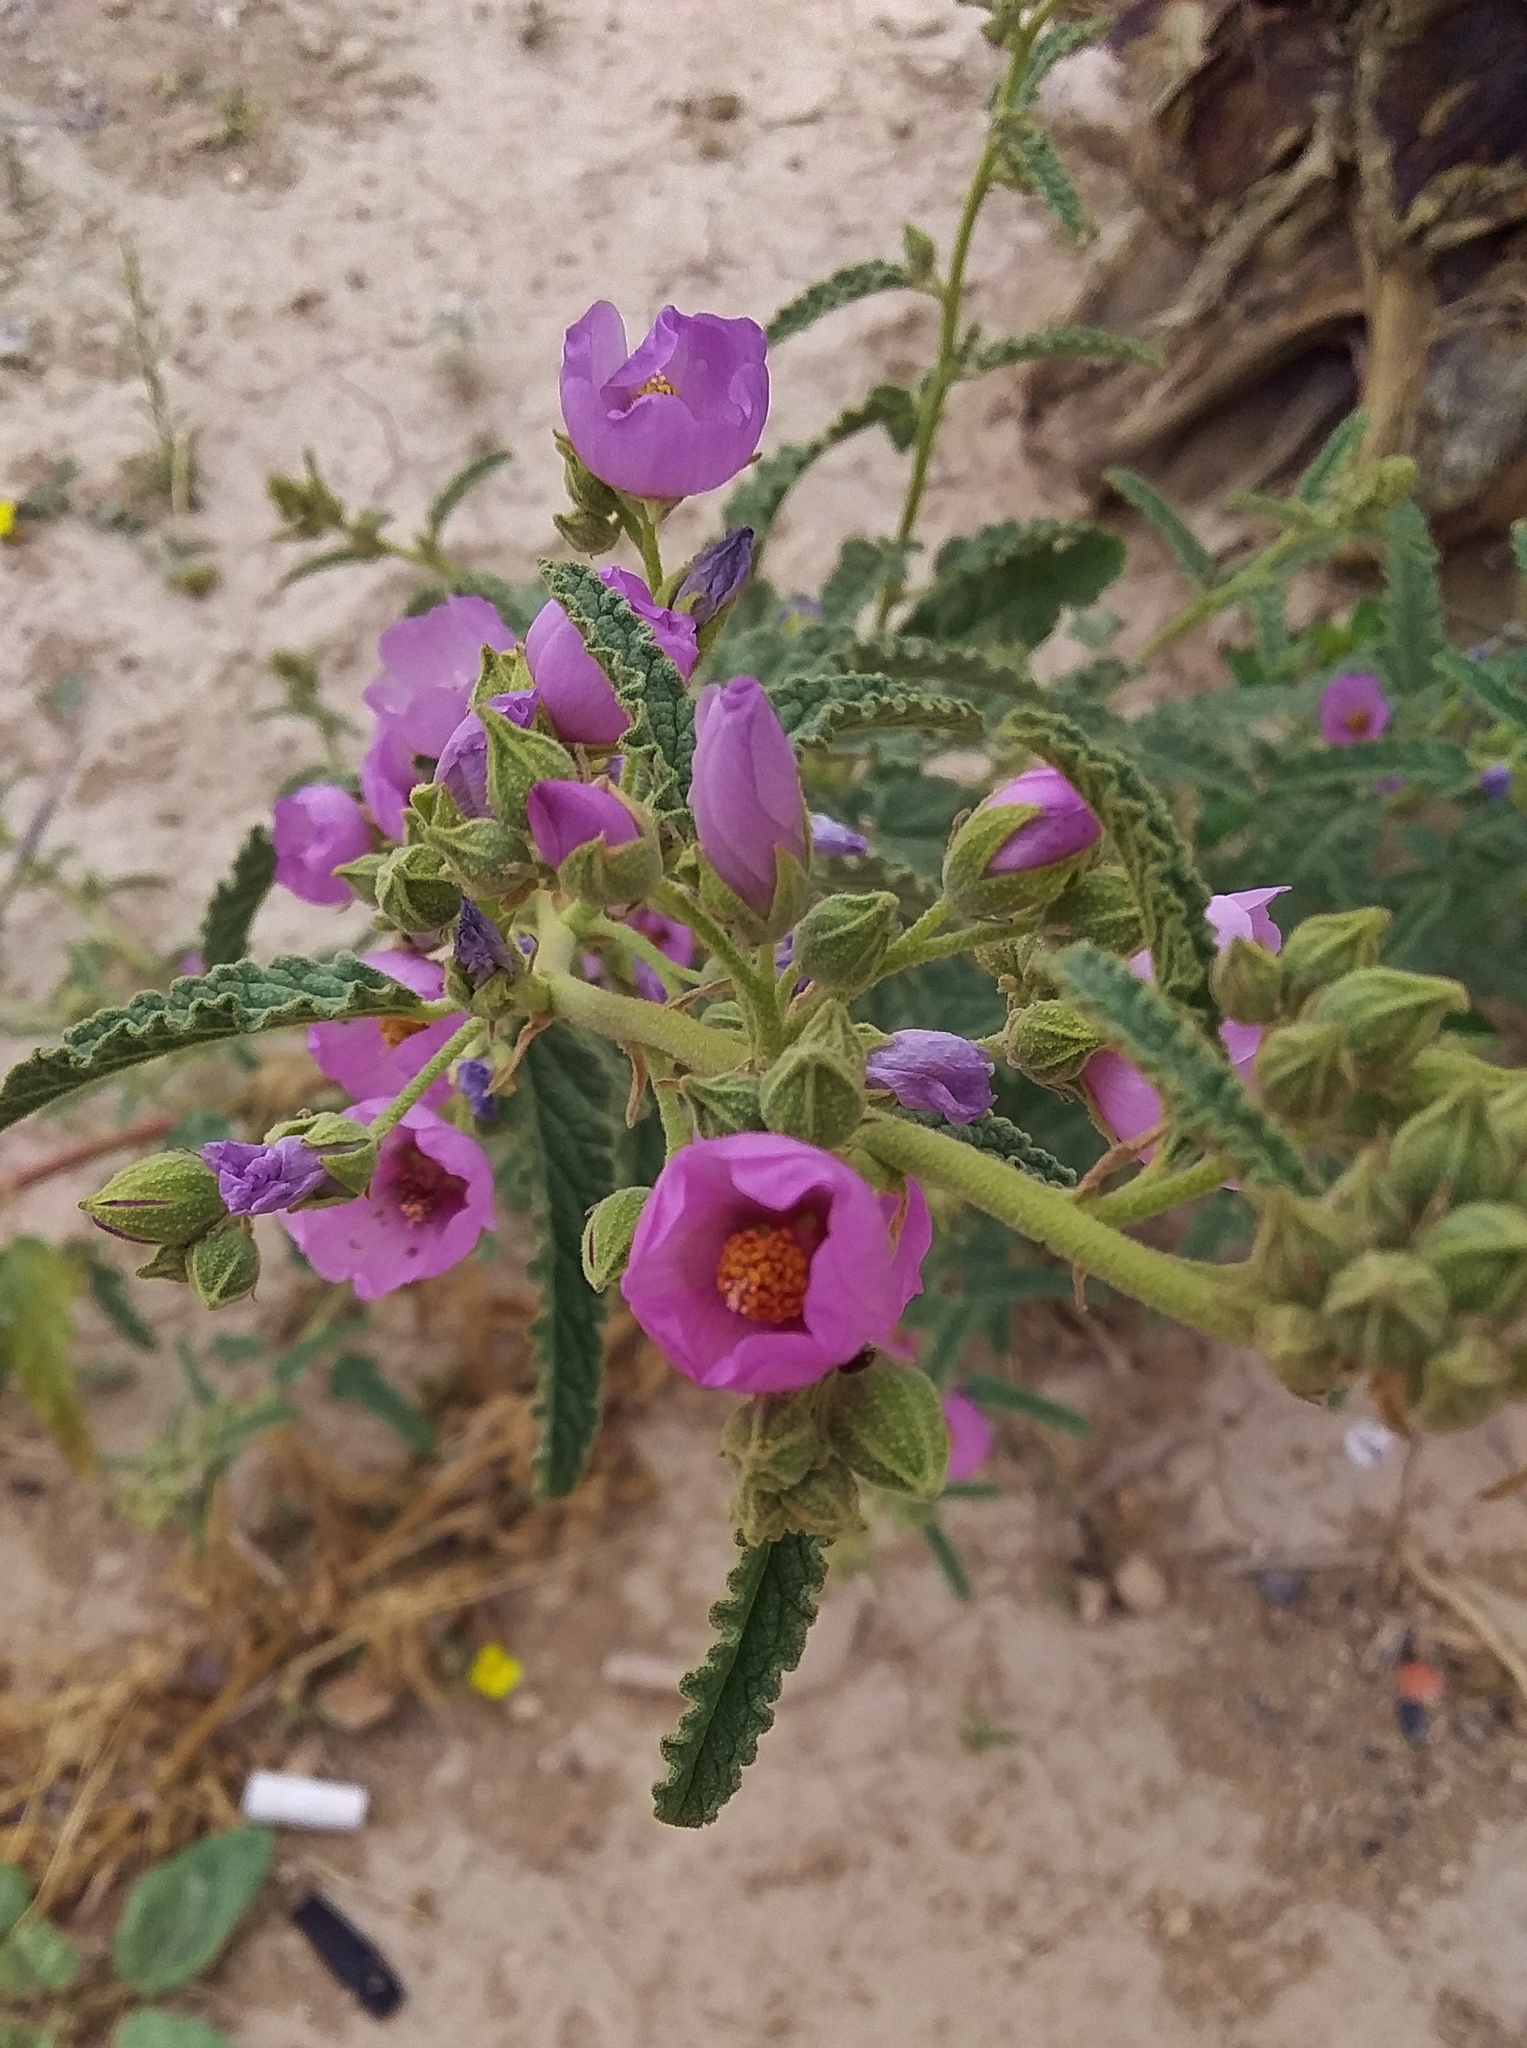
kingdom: Plantae
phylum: Tracheophyta
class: Magnoliopsida
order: Malvales
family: Malvaceae
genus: Sphaeralcea
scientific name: Sphaeralcea angustifolia
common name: Copper globe-mallow
